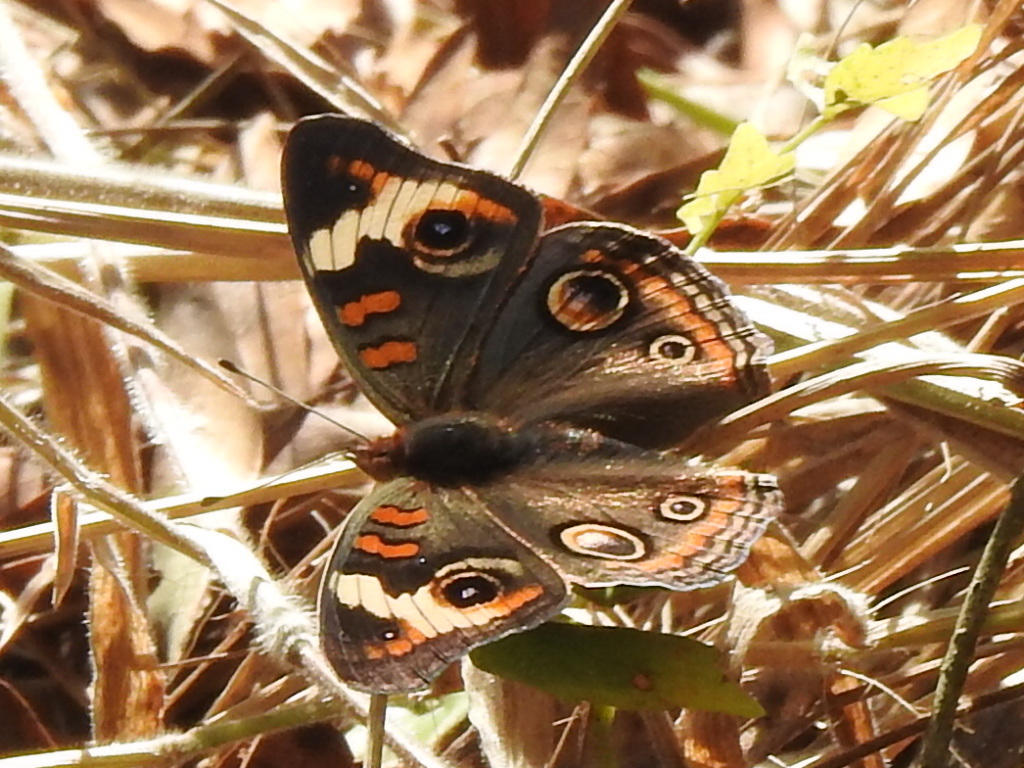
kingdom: Animalia
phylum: Arthropoda
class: Insecta
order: Lepidoptera
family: Nymphalidae
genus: Junonia
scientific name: Junonia coenia
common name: Common buckeye
